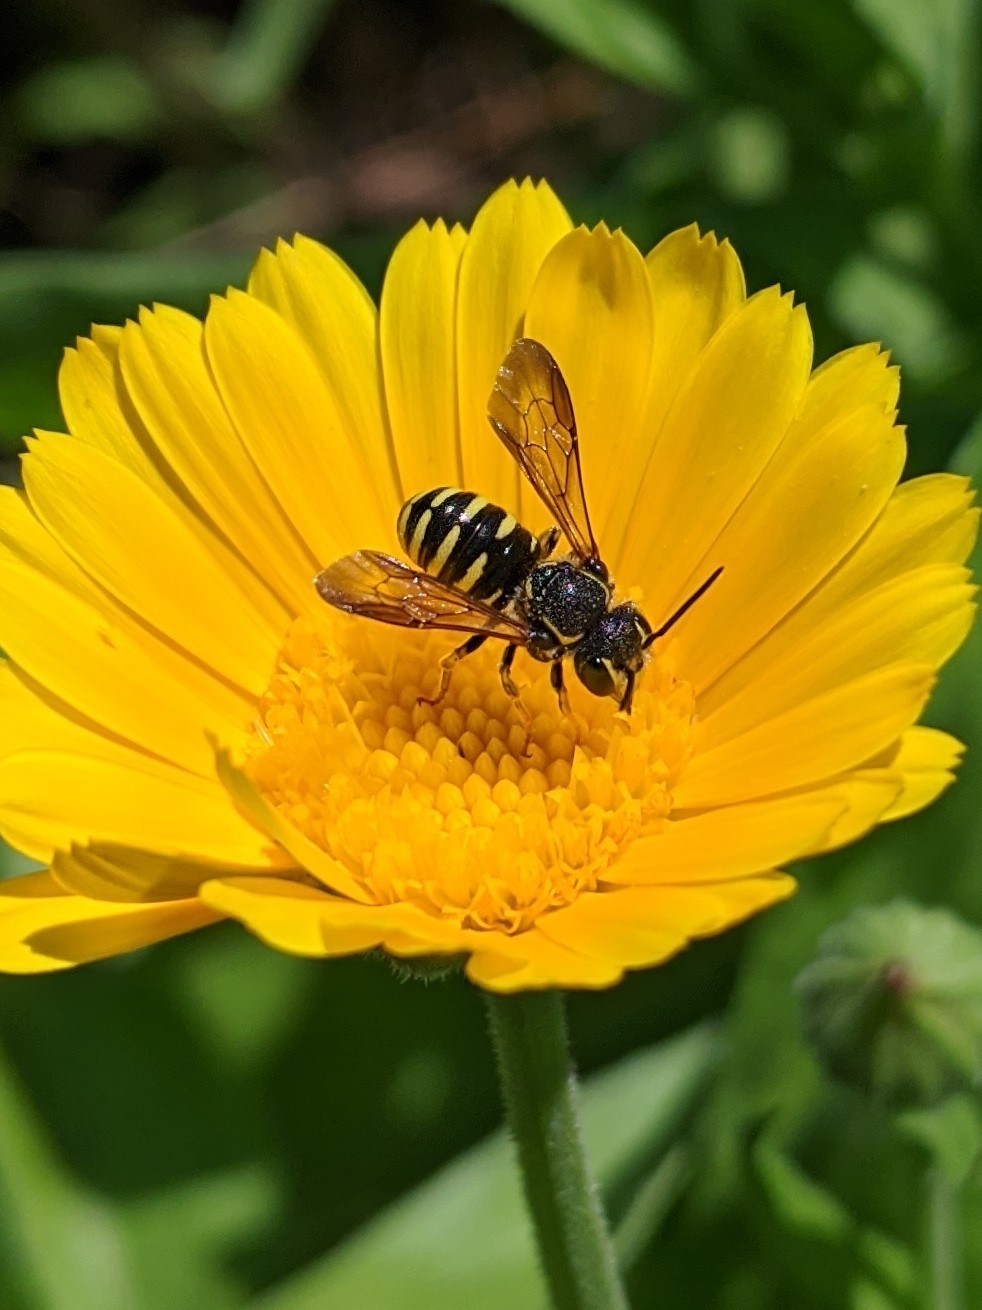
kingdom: Animalia
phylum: Arthropoda
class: Insecta
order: Hymenoptera
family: Megachilidae
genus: Paranthidium
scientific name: Paranthidium jugatorium
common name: Sunflower burrowing-resin bee
